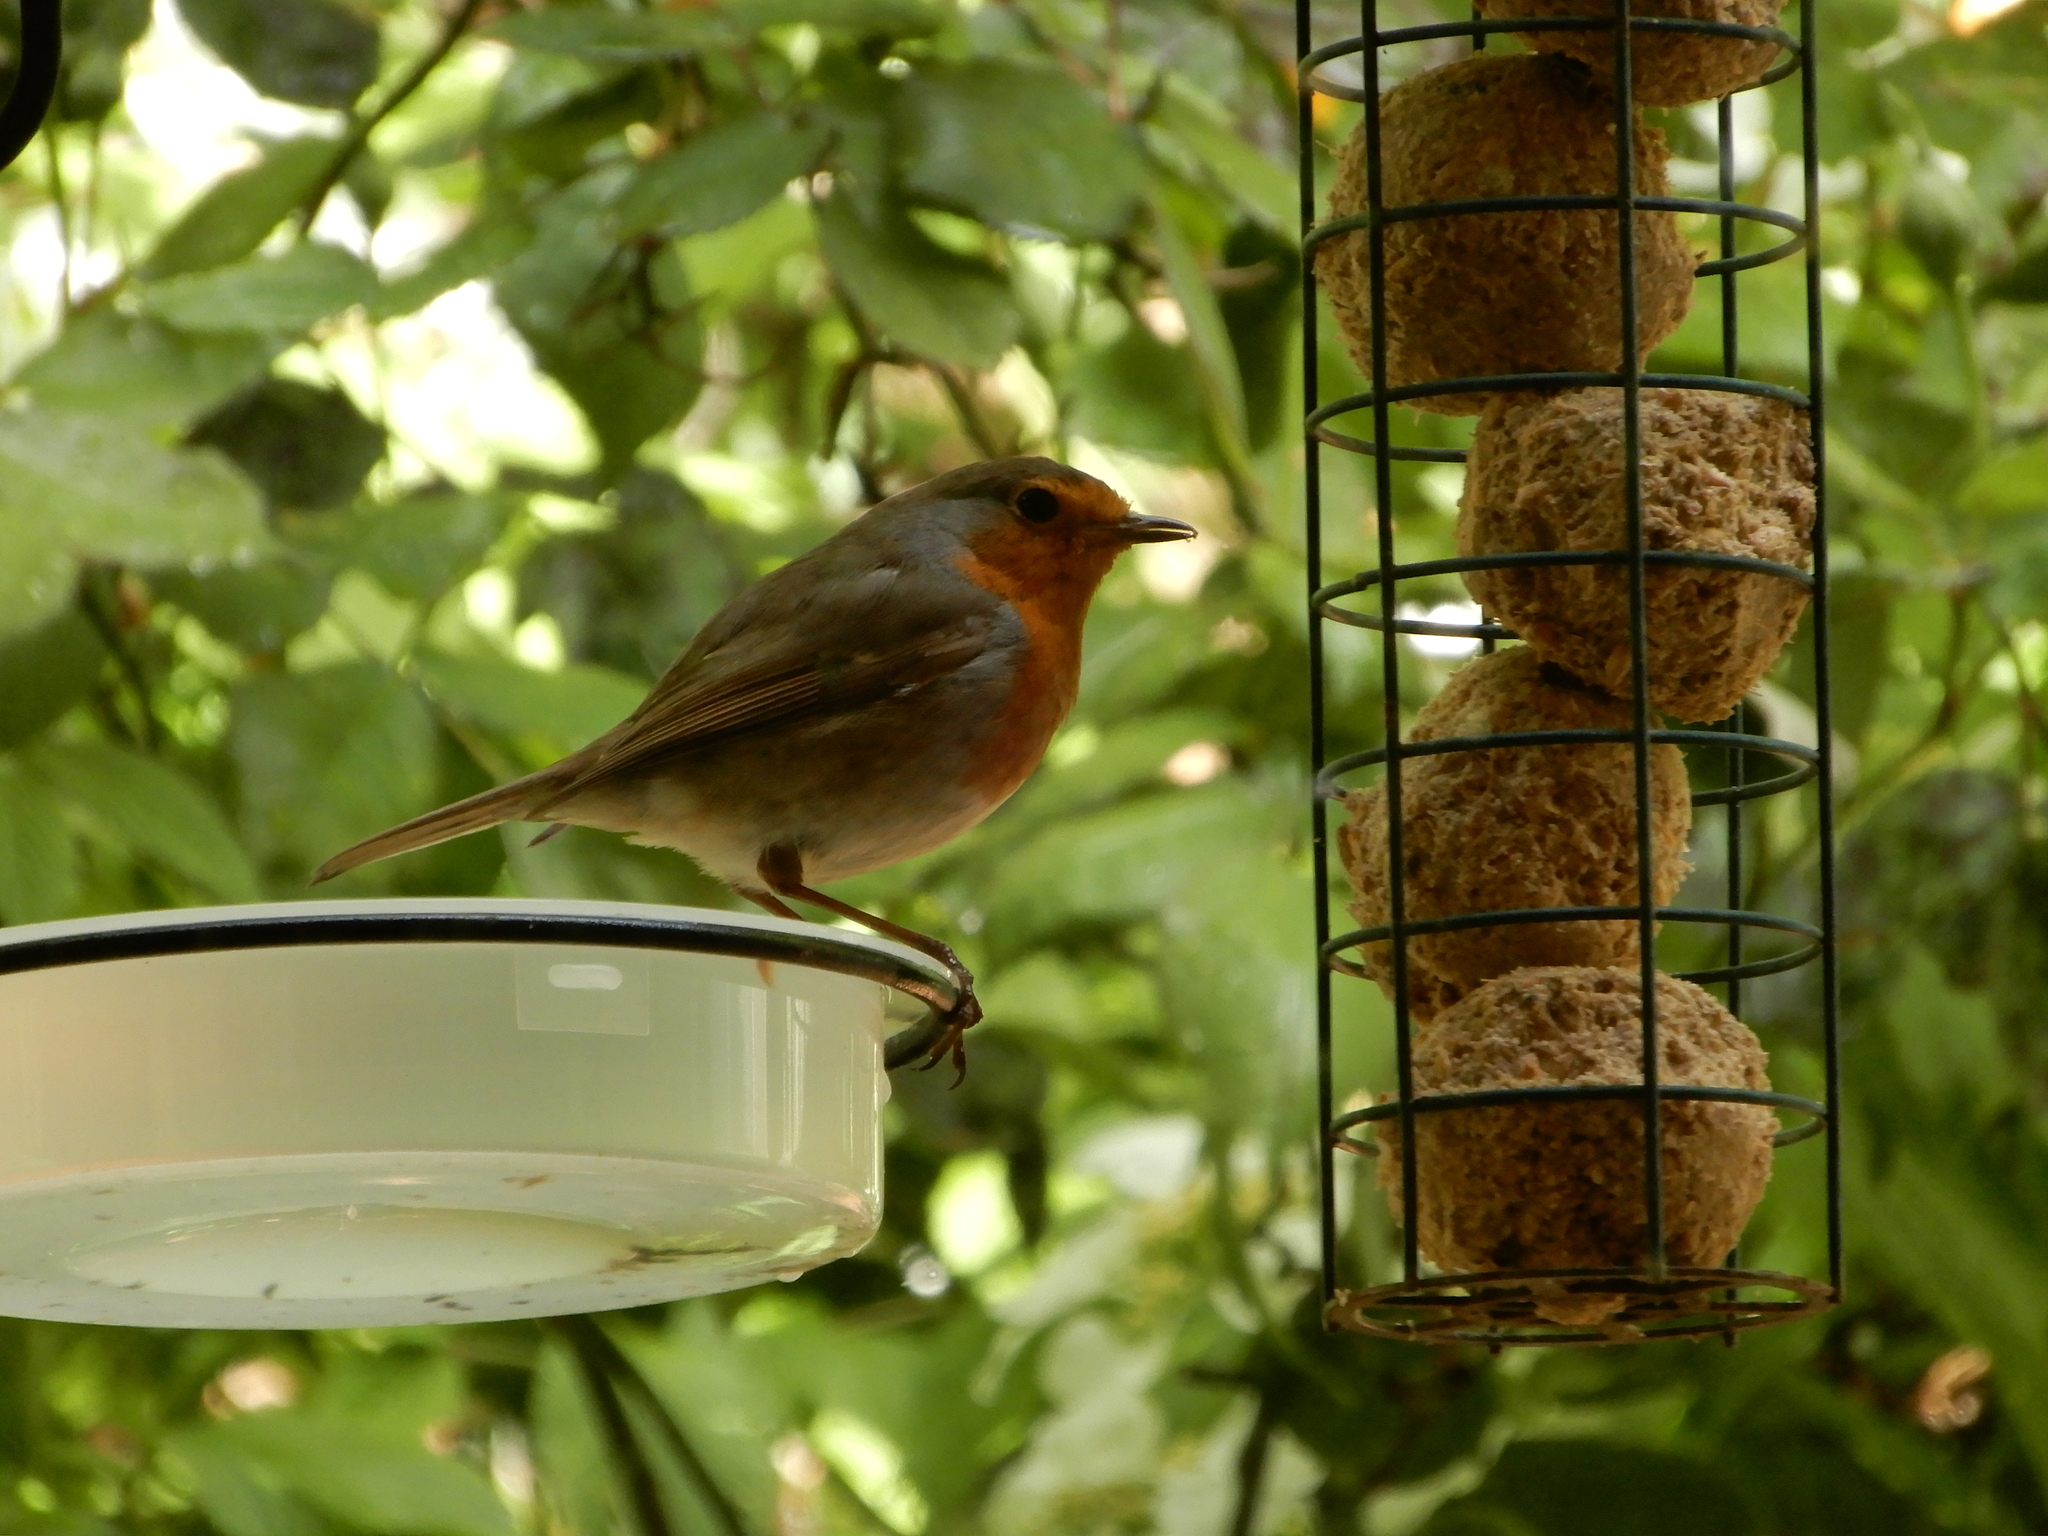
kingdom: Animalia
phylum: Chordata
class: Aves
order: Passeriformes
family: Muscicapidae
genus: Erithacus
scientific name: Erithacus rubecula
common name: European robin
